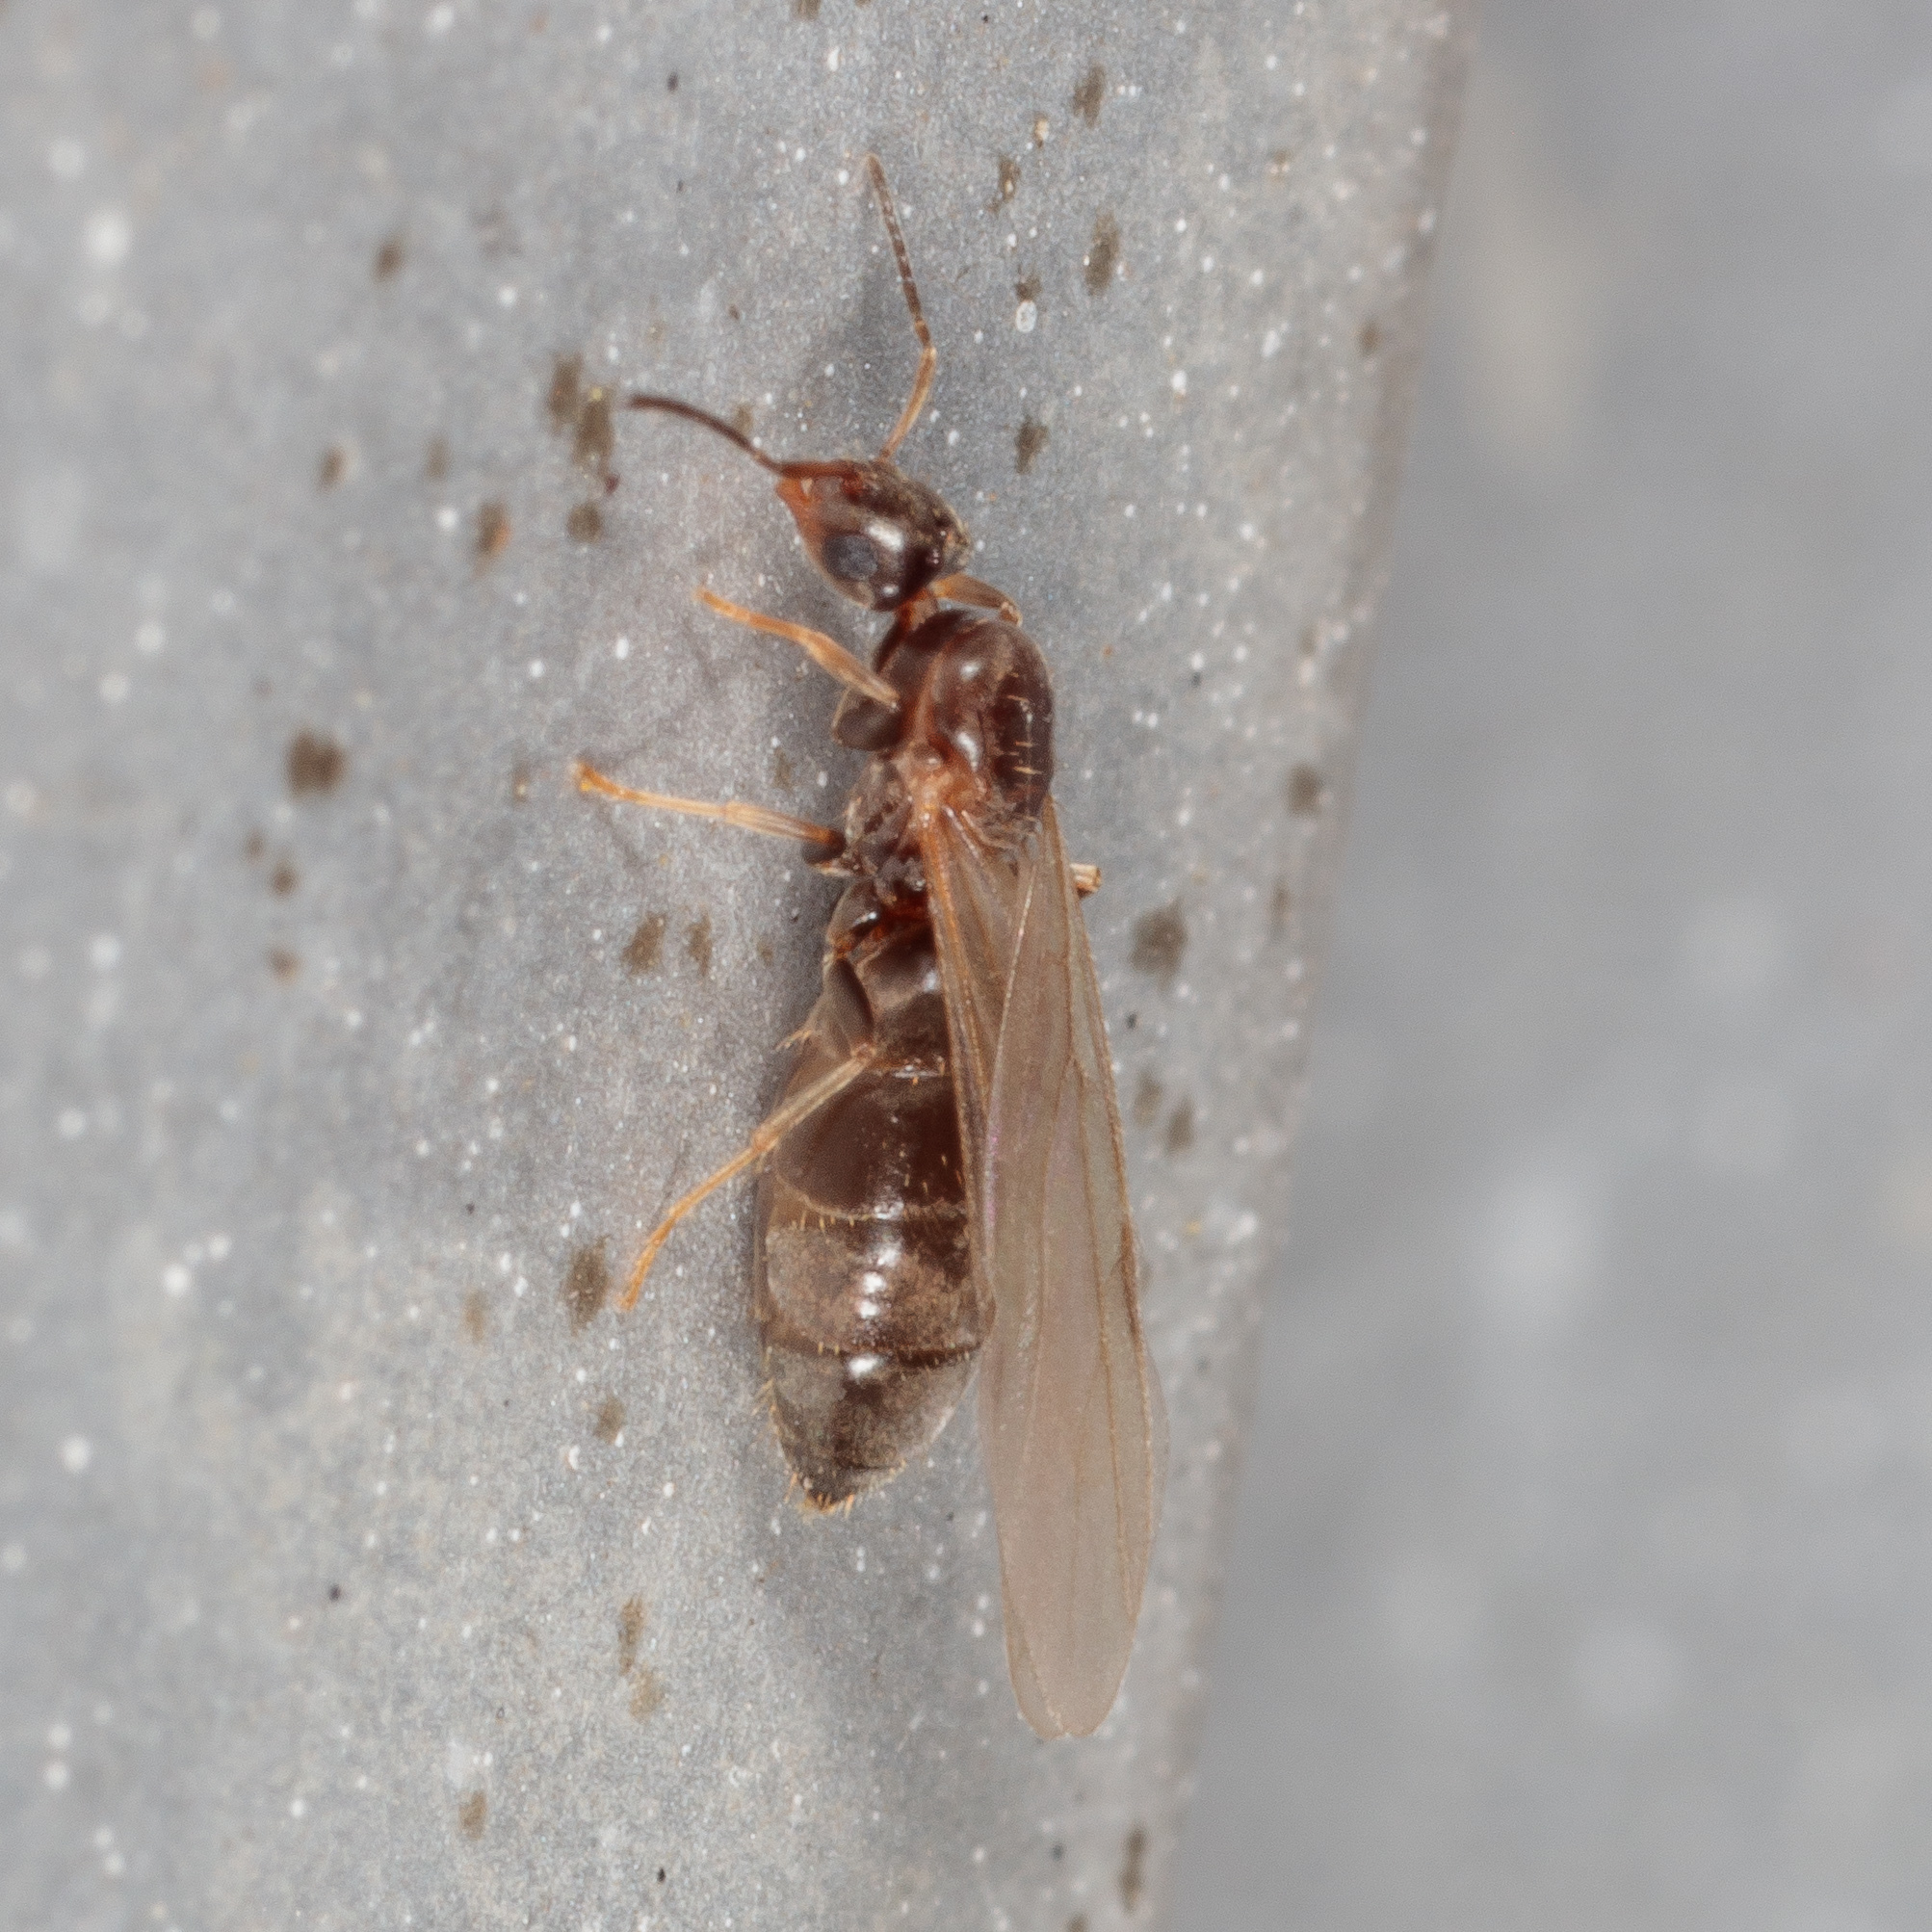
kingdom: Animalia
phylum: Arthropoda
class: Insecta
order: Hymenoptera
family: Formicidae
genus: Brachymyrmex
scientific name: Brachymyrmex patagonicus
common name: Dark rover ant
